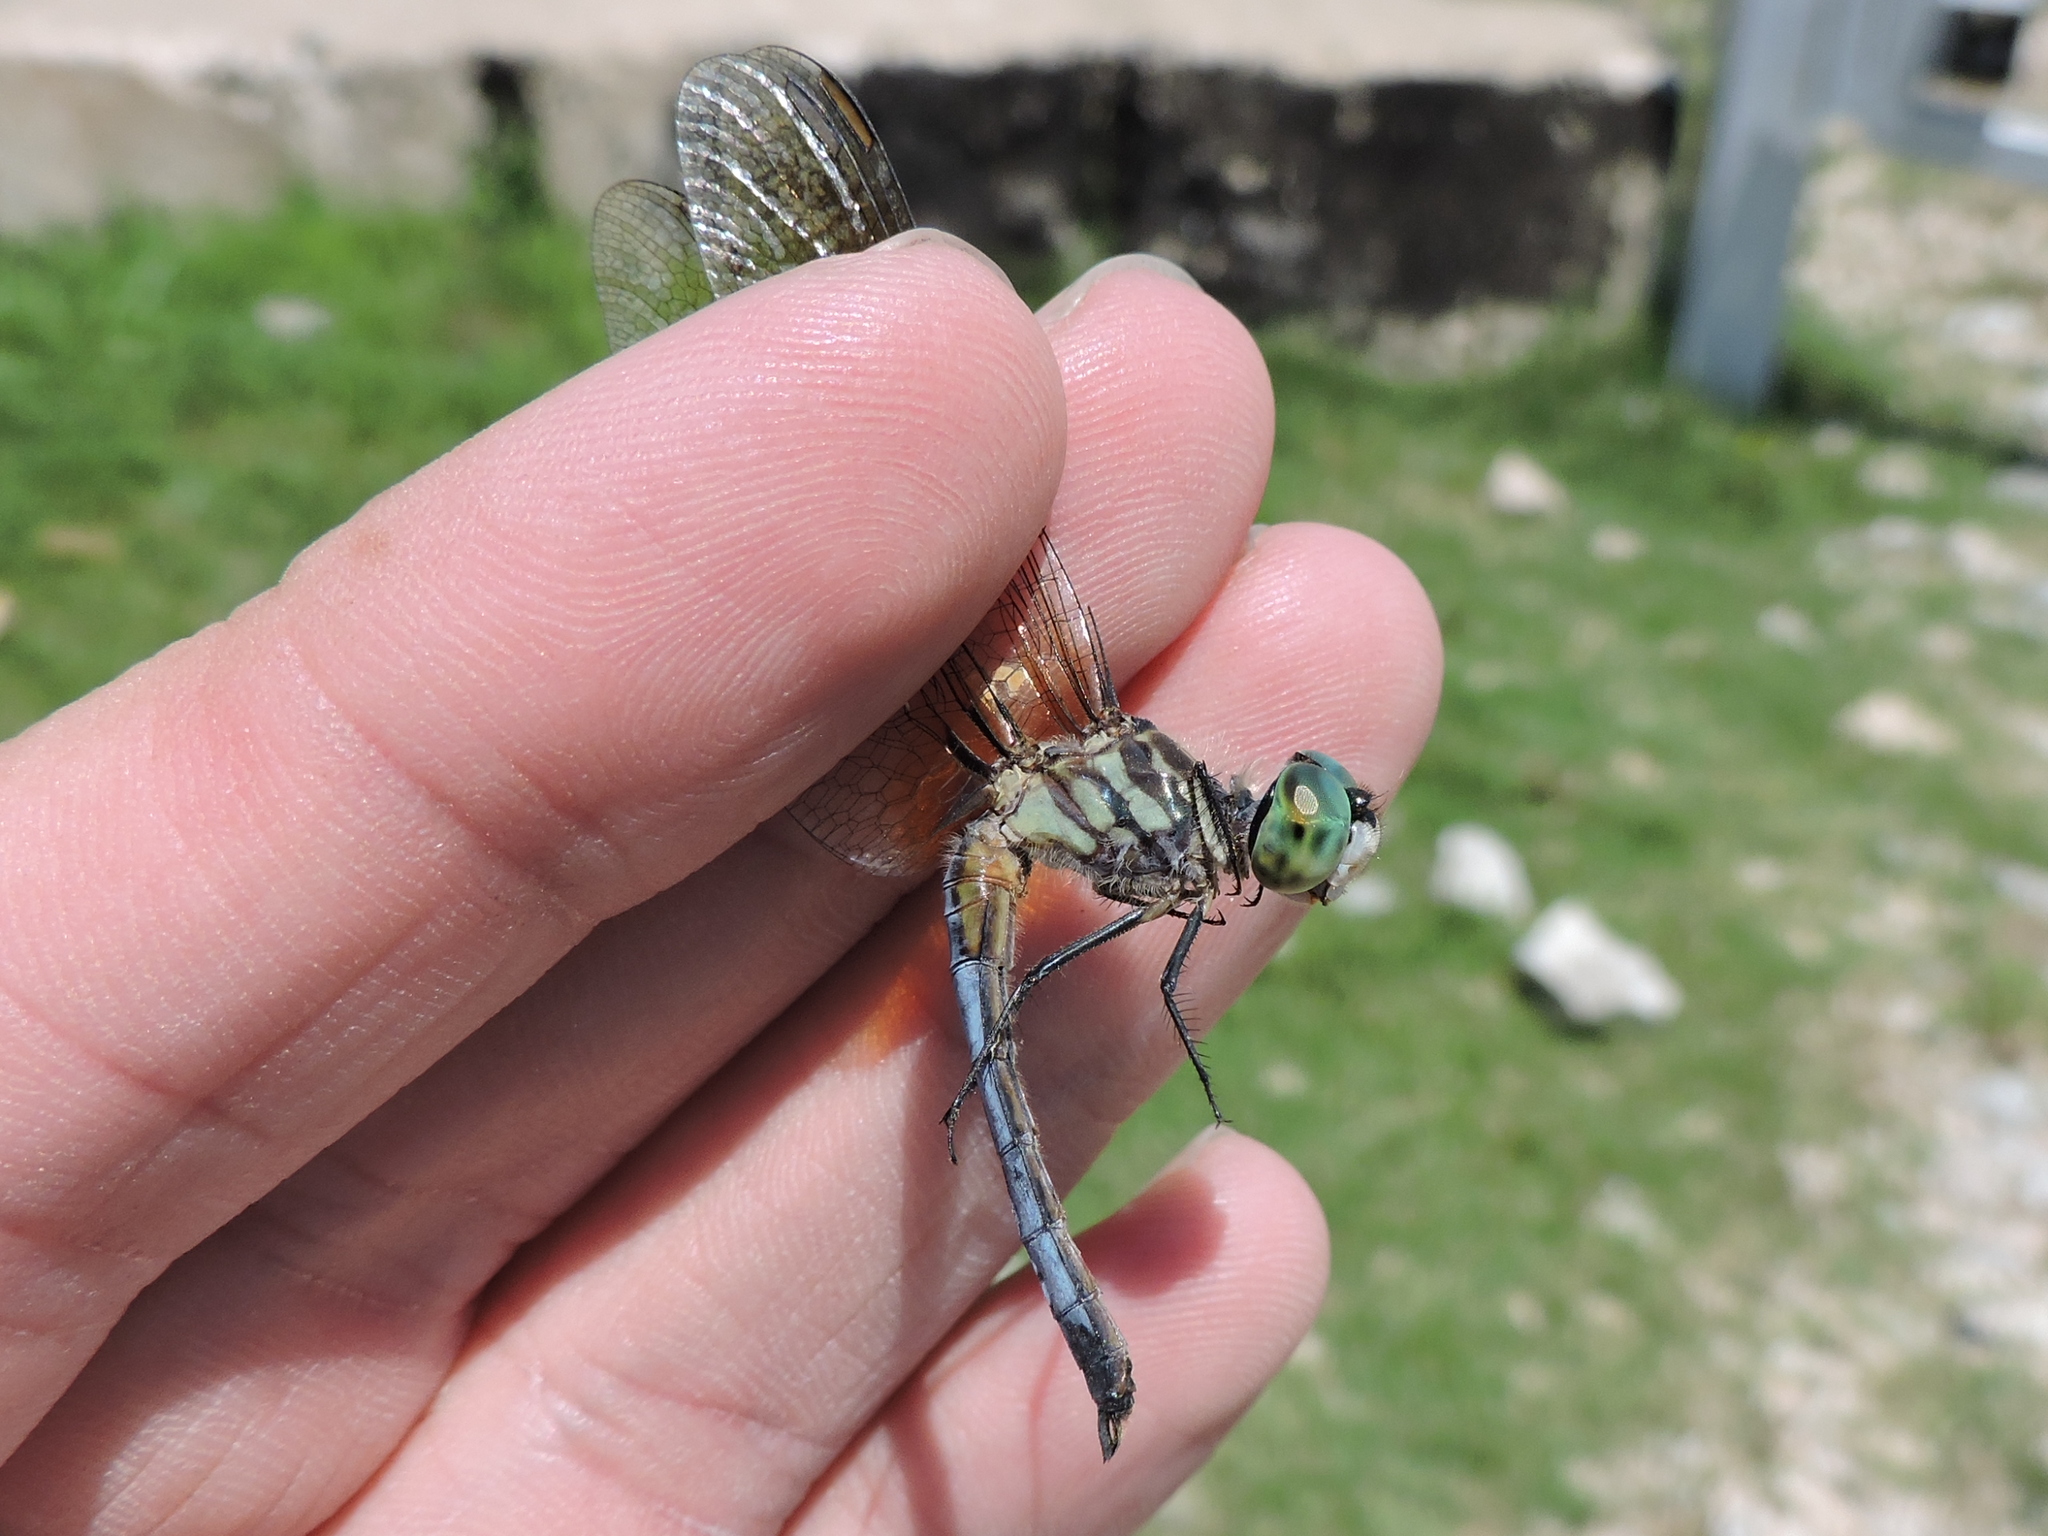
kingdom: Animalia
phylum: Arthropoda
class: Insecta
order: Odonata
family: Libellulidae
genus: Pachydiplax
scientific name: Pachydiplax longipennis
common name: Blue dasher
